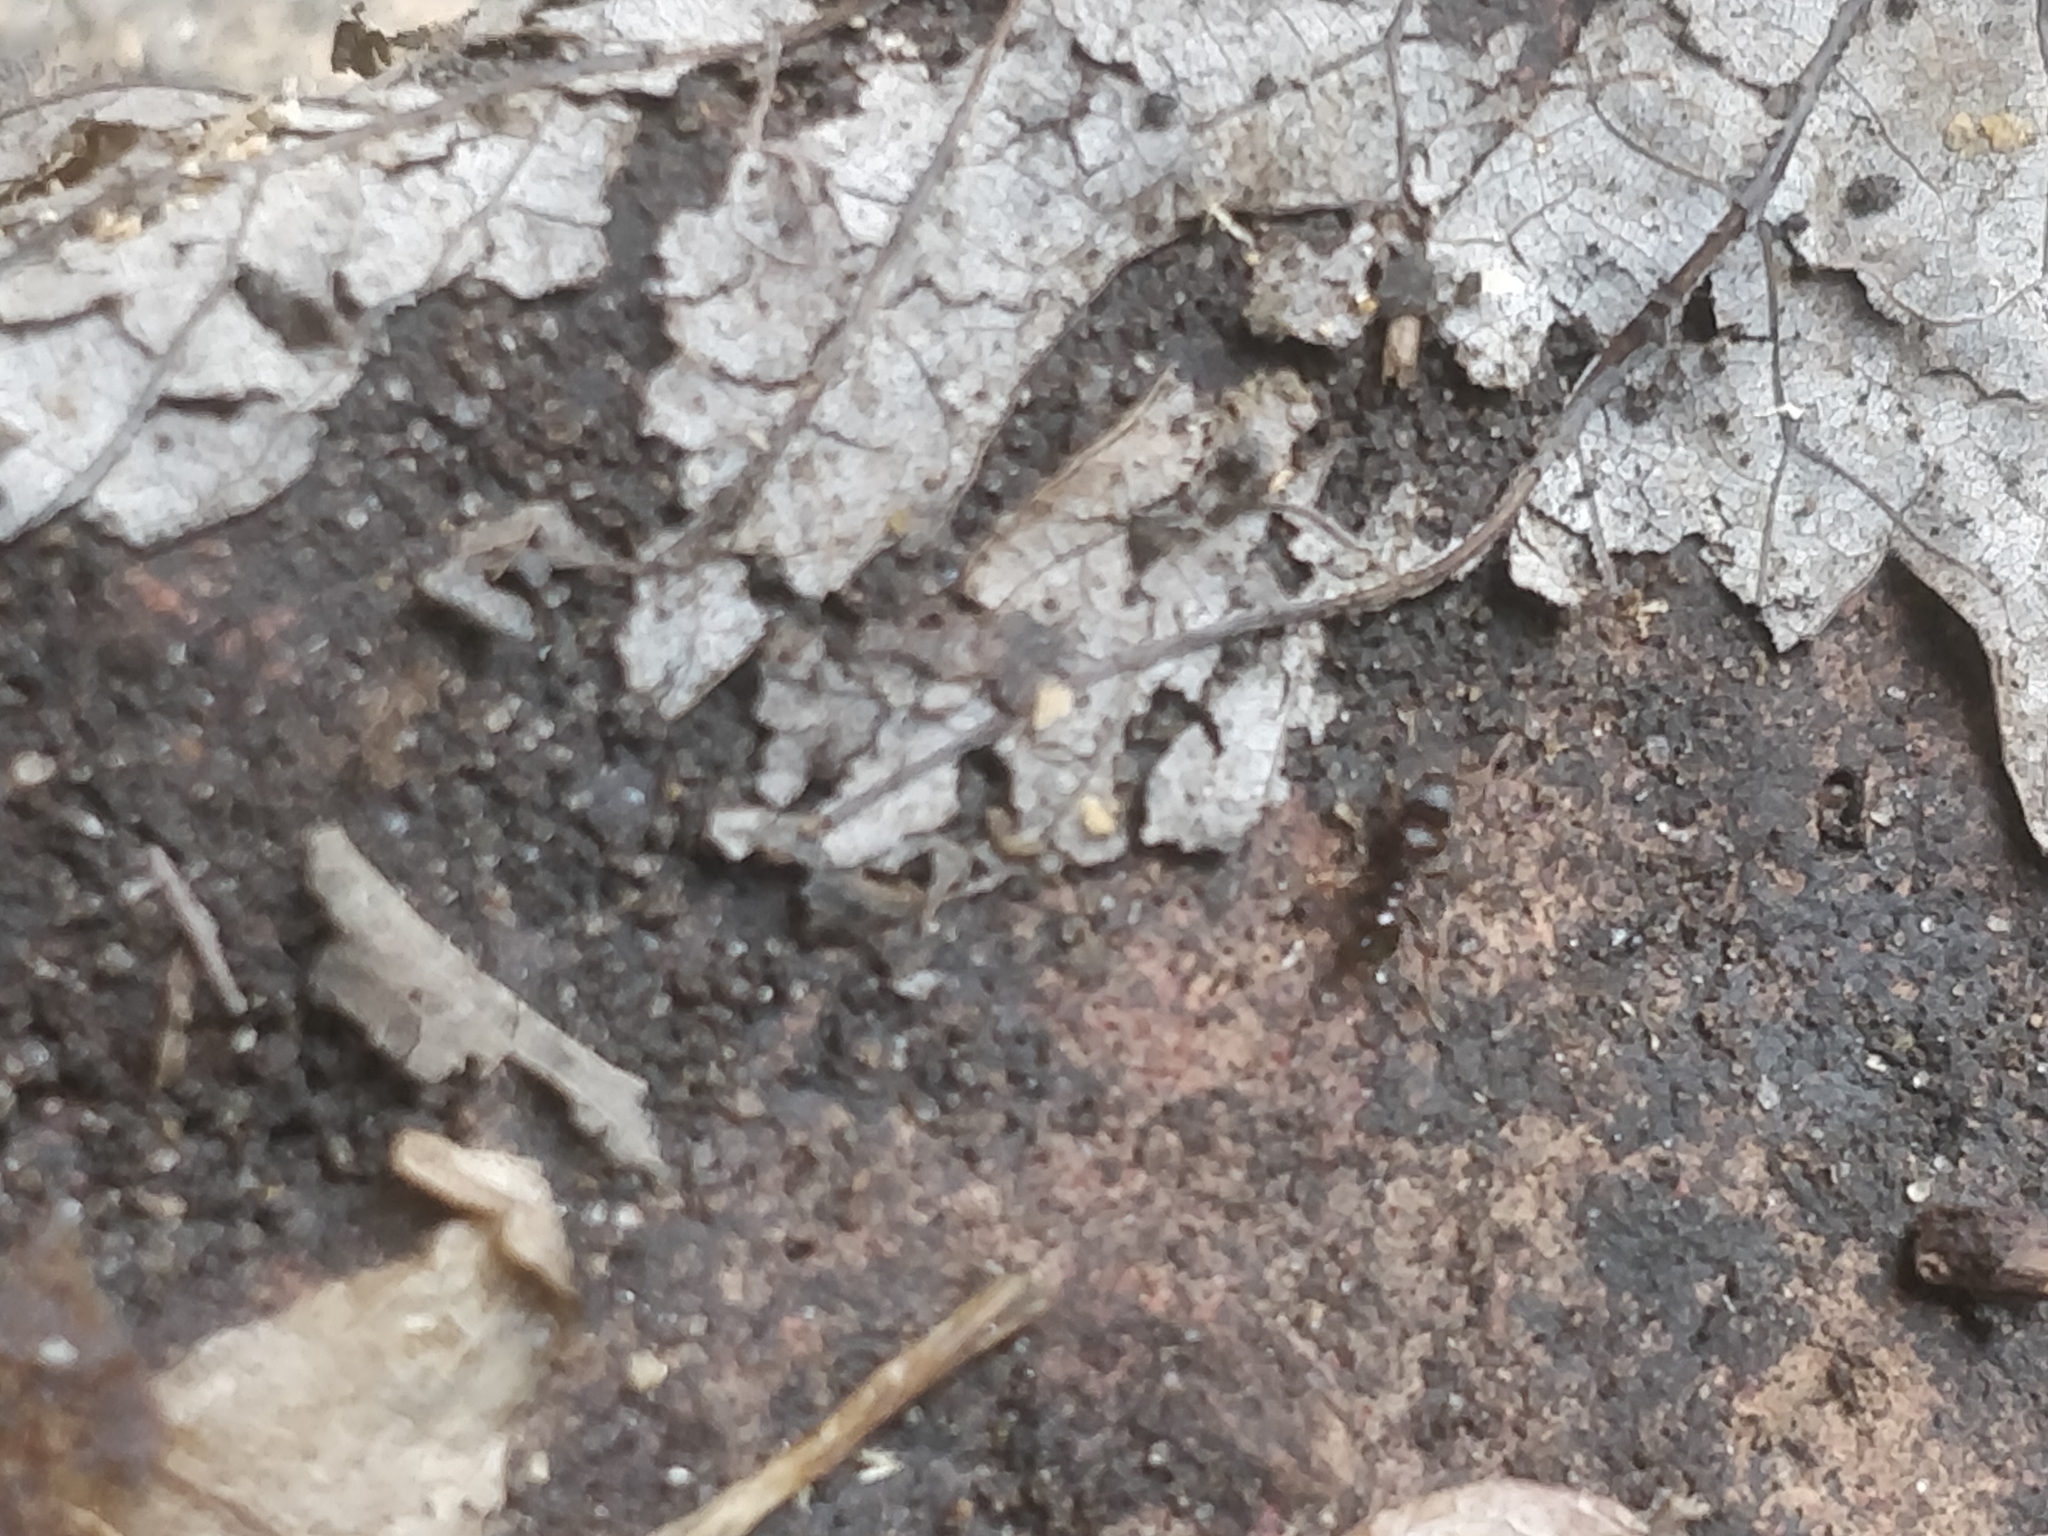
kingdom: Animalia
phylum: Arthropoda
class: Insecta
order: Hymenoptera
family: Formicidae
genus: Tetramorium
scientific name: Tetramorium immigrans
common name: Pavement ant
